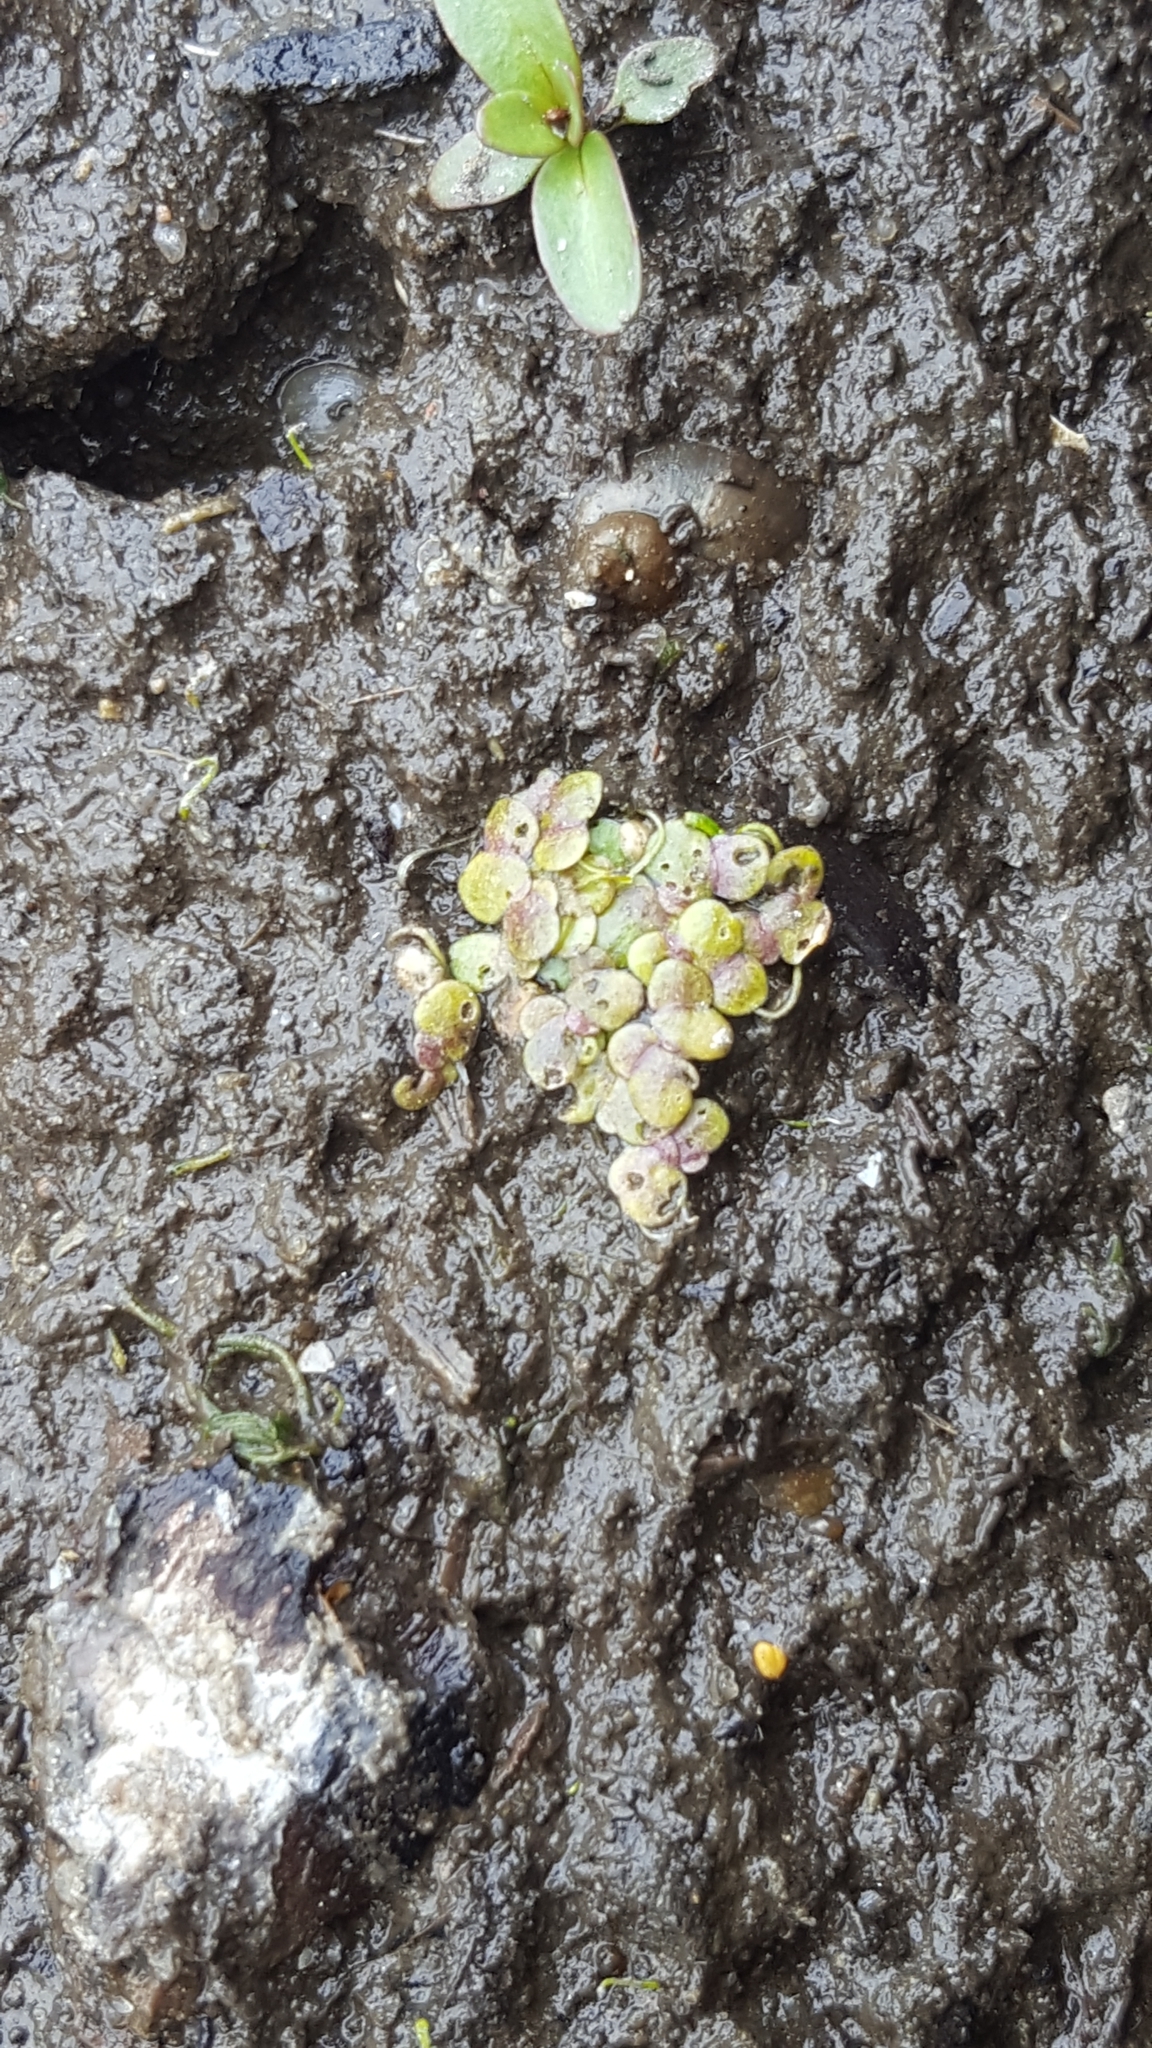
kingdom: Plantae
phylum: Tracheophyta
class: Liliopsida
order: Alismatales
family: Araceae
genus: Lemna
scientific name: Lemna minor
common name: Common duckweed
